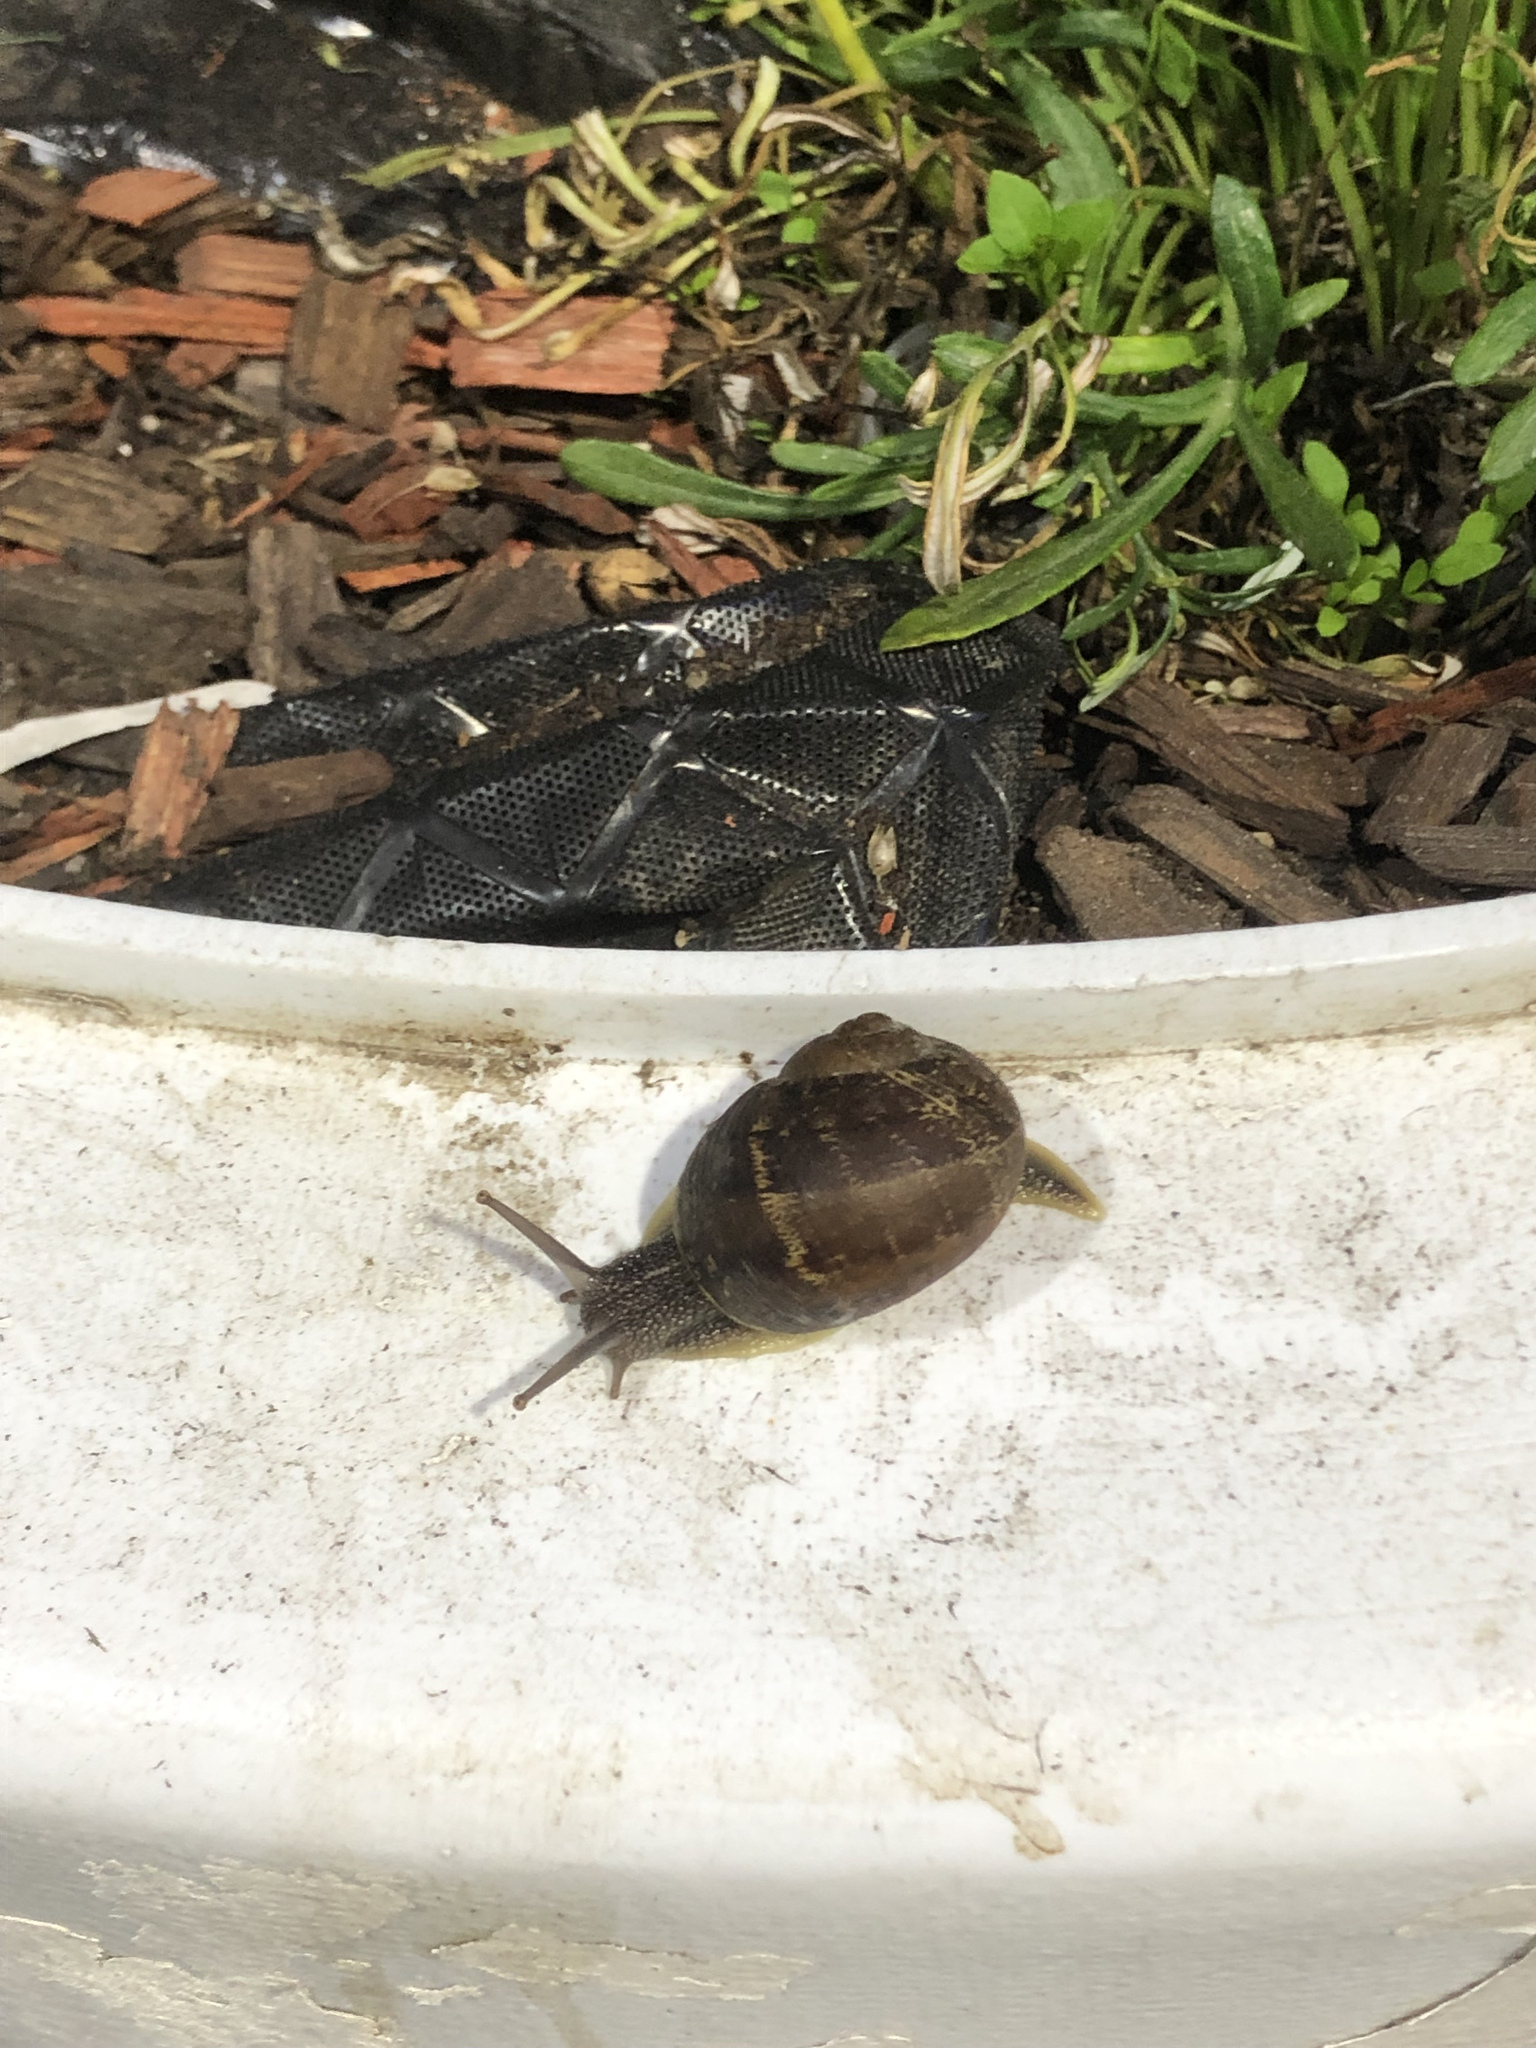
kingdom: Animalia
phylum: Mollusca
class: Gastropoda
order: Stylommatophora
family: Helicidae
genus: Cornu
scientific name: Cornu aspersum
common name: Brown garden snail
